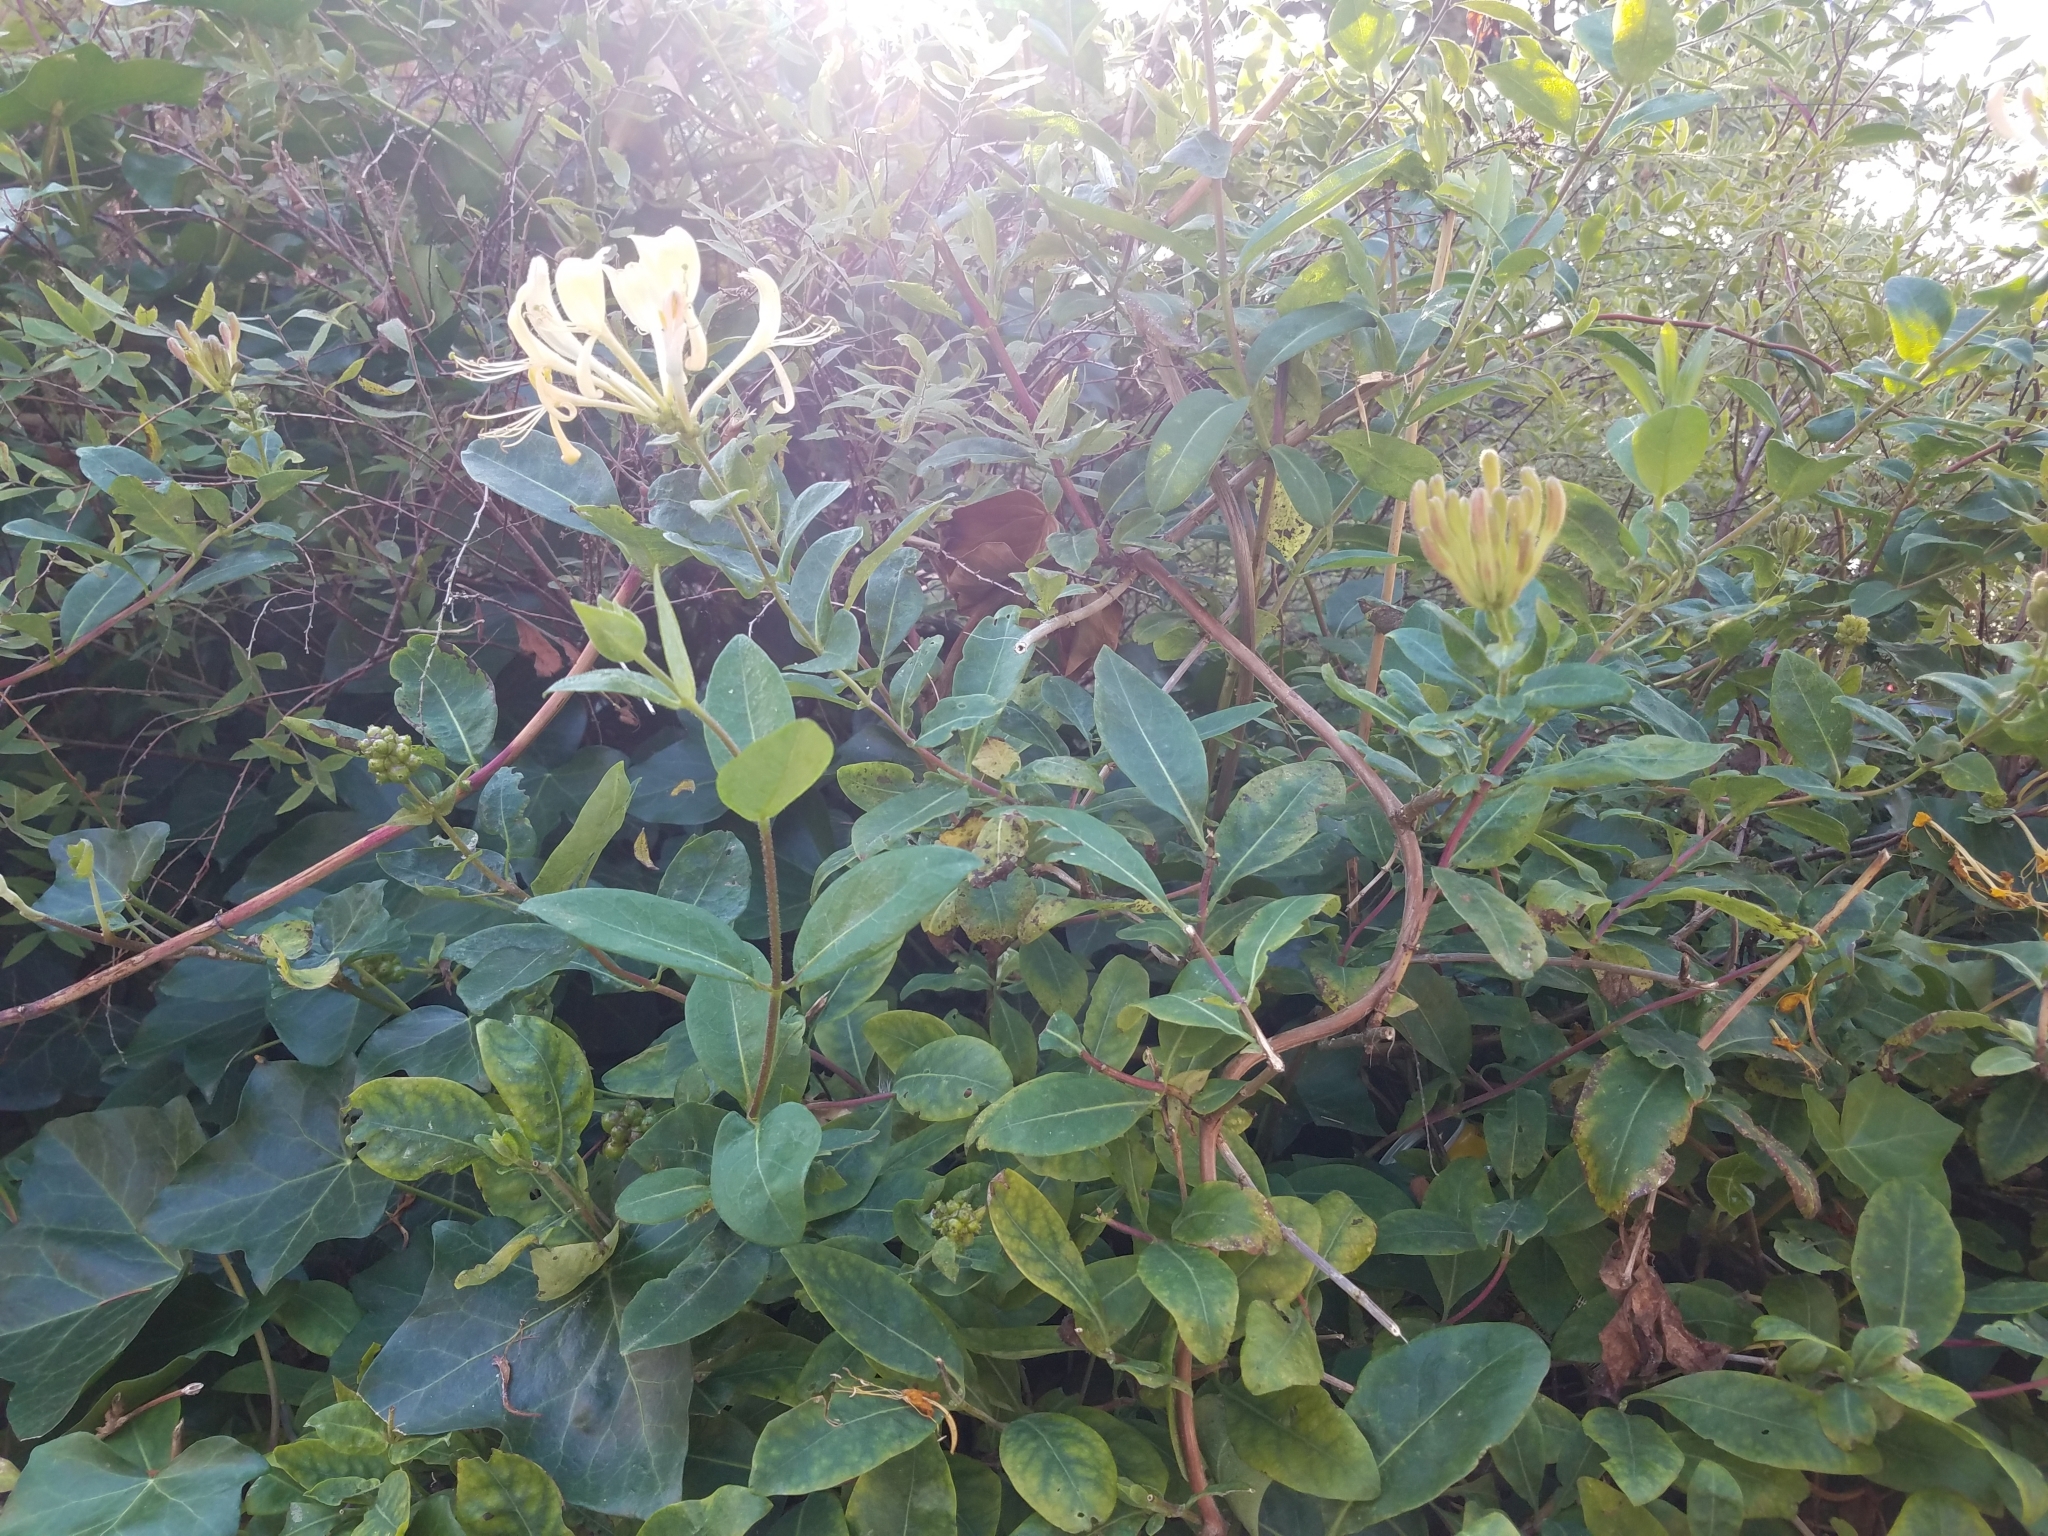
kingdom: Plantae
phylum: Tracheophyta
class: Magnoliopsida
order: Dipsacales
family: Caprifoliaceae
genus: Lonicera
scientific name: Lonicera periclymenum
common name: European honeysuckle
